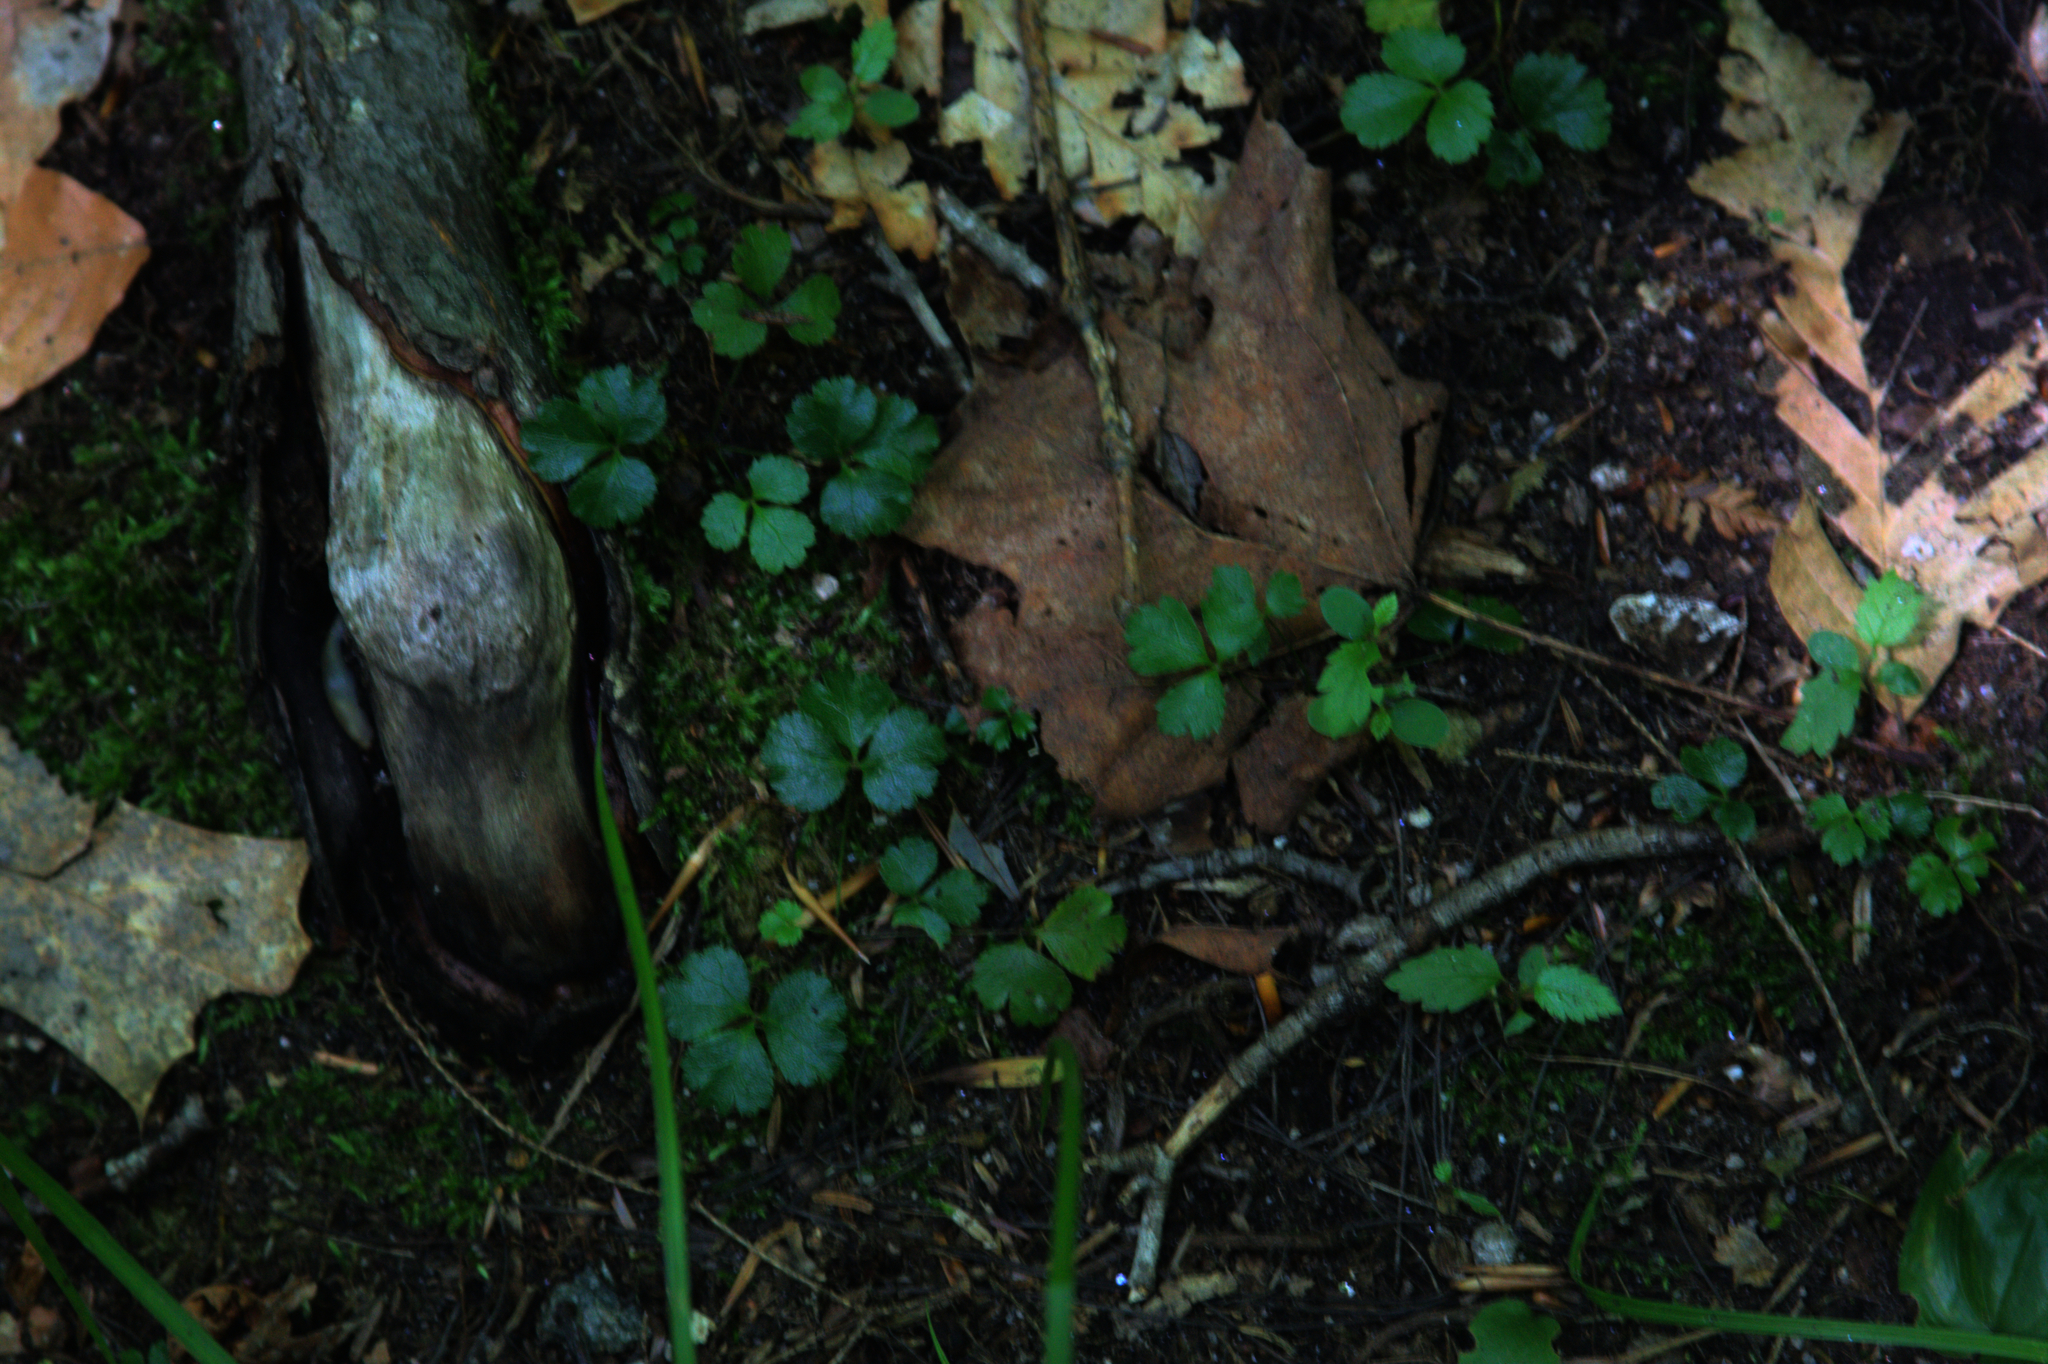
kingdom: Plantae
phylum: Tracheophyta
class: Magnoliopsida
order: Ranunculales
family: Ranunculaceae
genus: Coptis
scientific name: Coptis trifolia
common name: Canker-root
